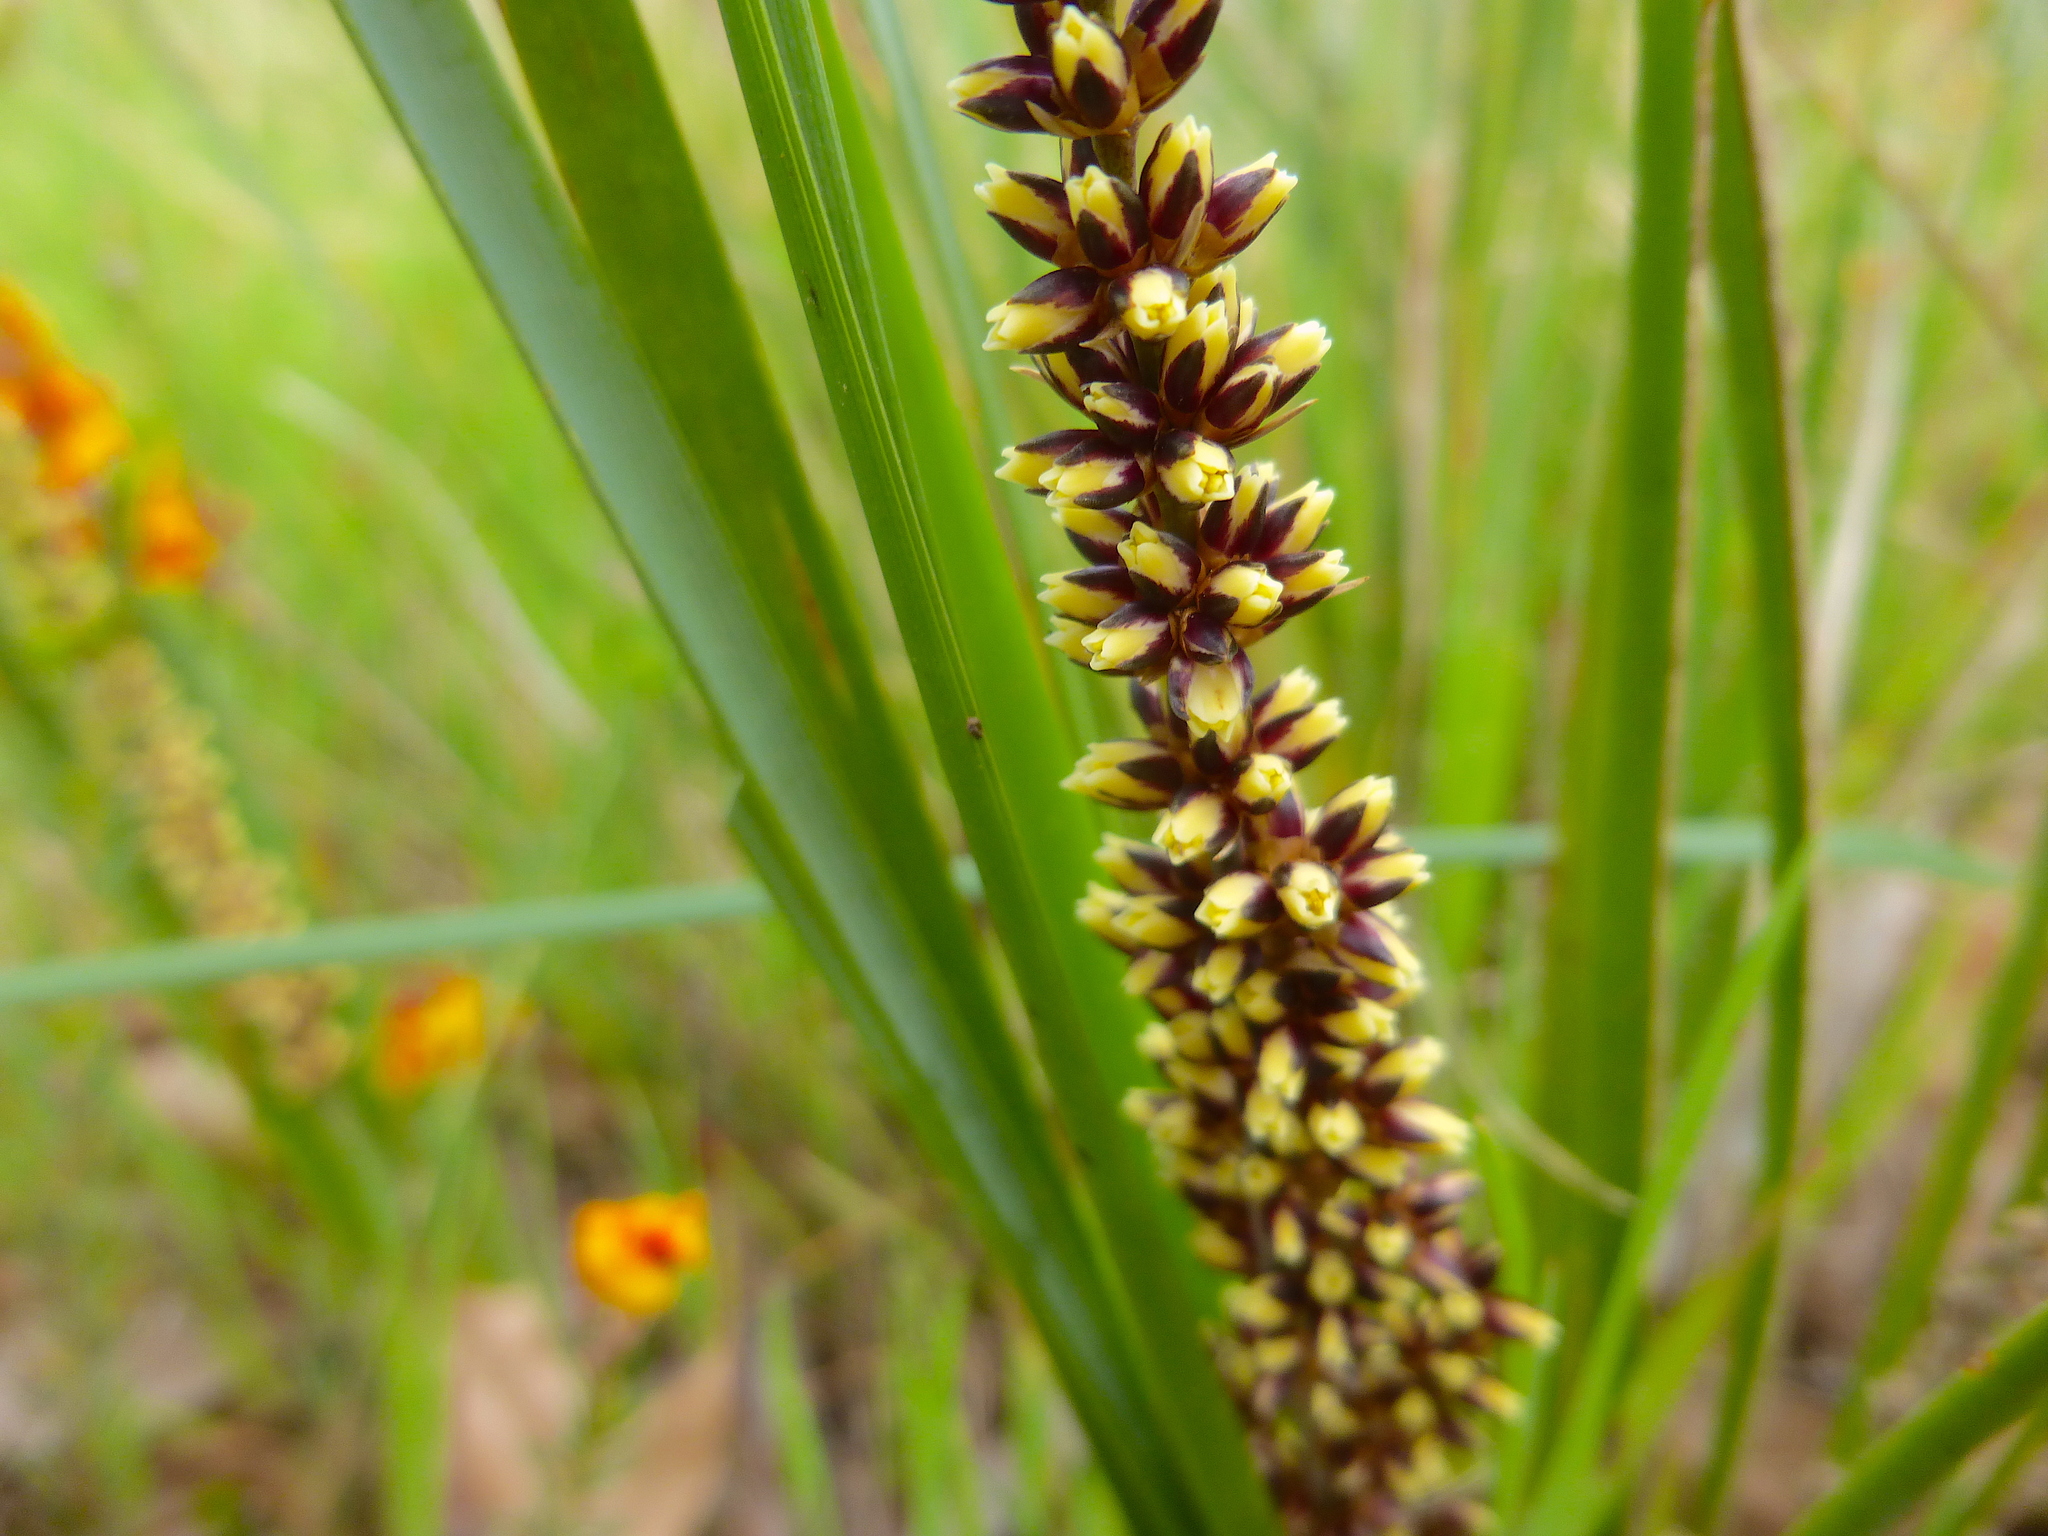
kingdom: Plantae
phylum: Tracheophyta
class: Liliopsida
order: Asparagales
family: Asparagaceae
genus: Lomandra
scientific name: Lomandra longifolia
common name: Longleaf mat-rush
